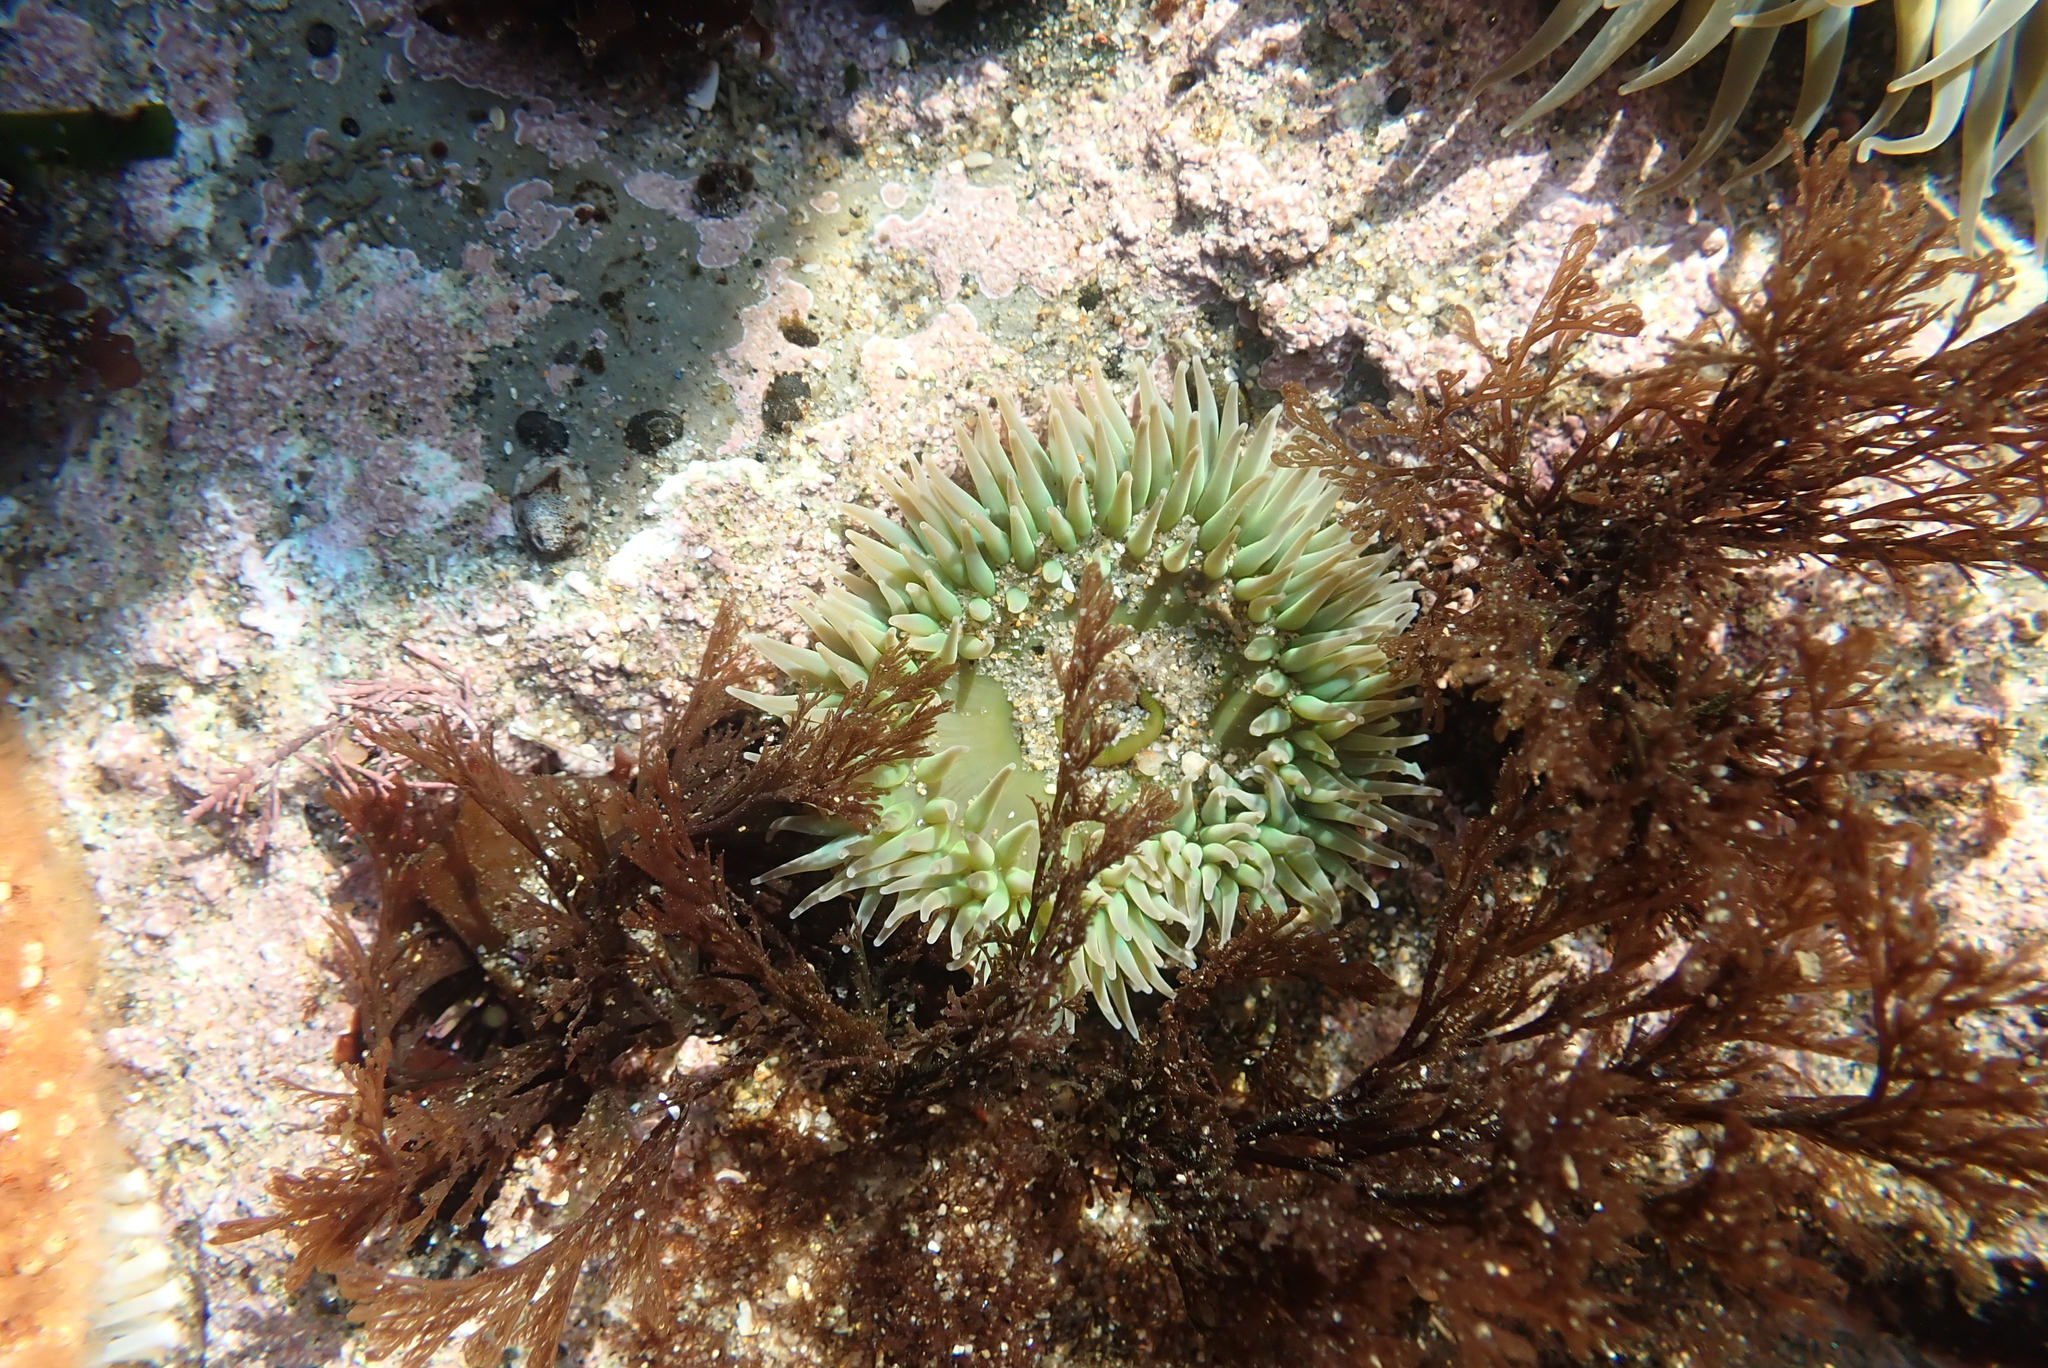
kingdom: Animalia
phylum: Cnidaria
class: Anthozoa
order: Actiniaria
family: Actiniidae
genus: Anthopleura
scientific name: Anthopleura xanthogrammica
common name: Giant green anemone
